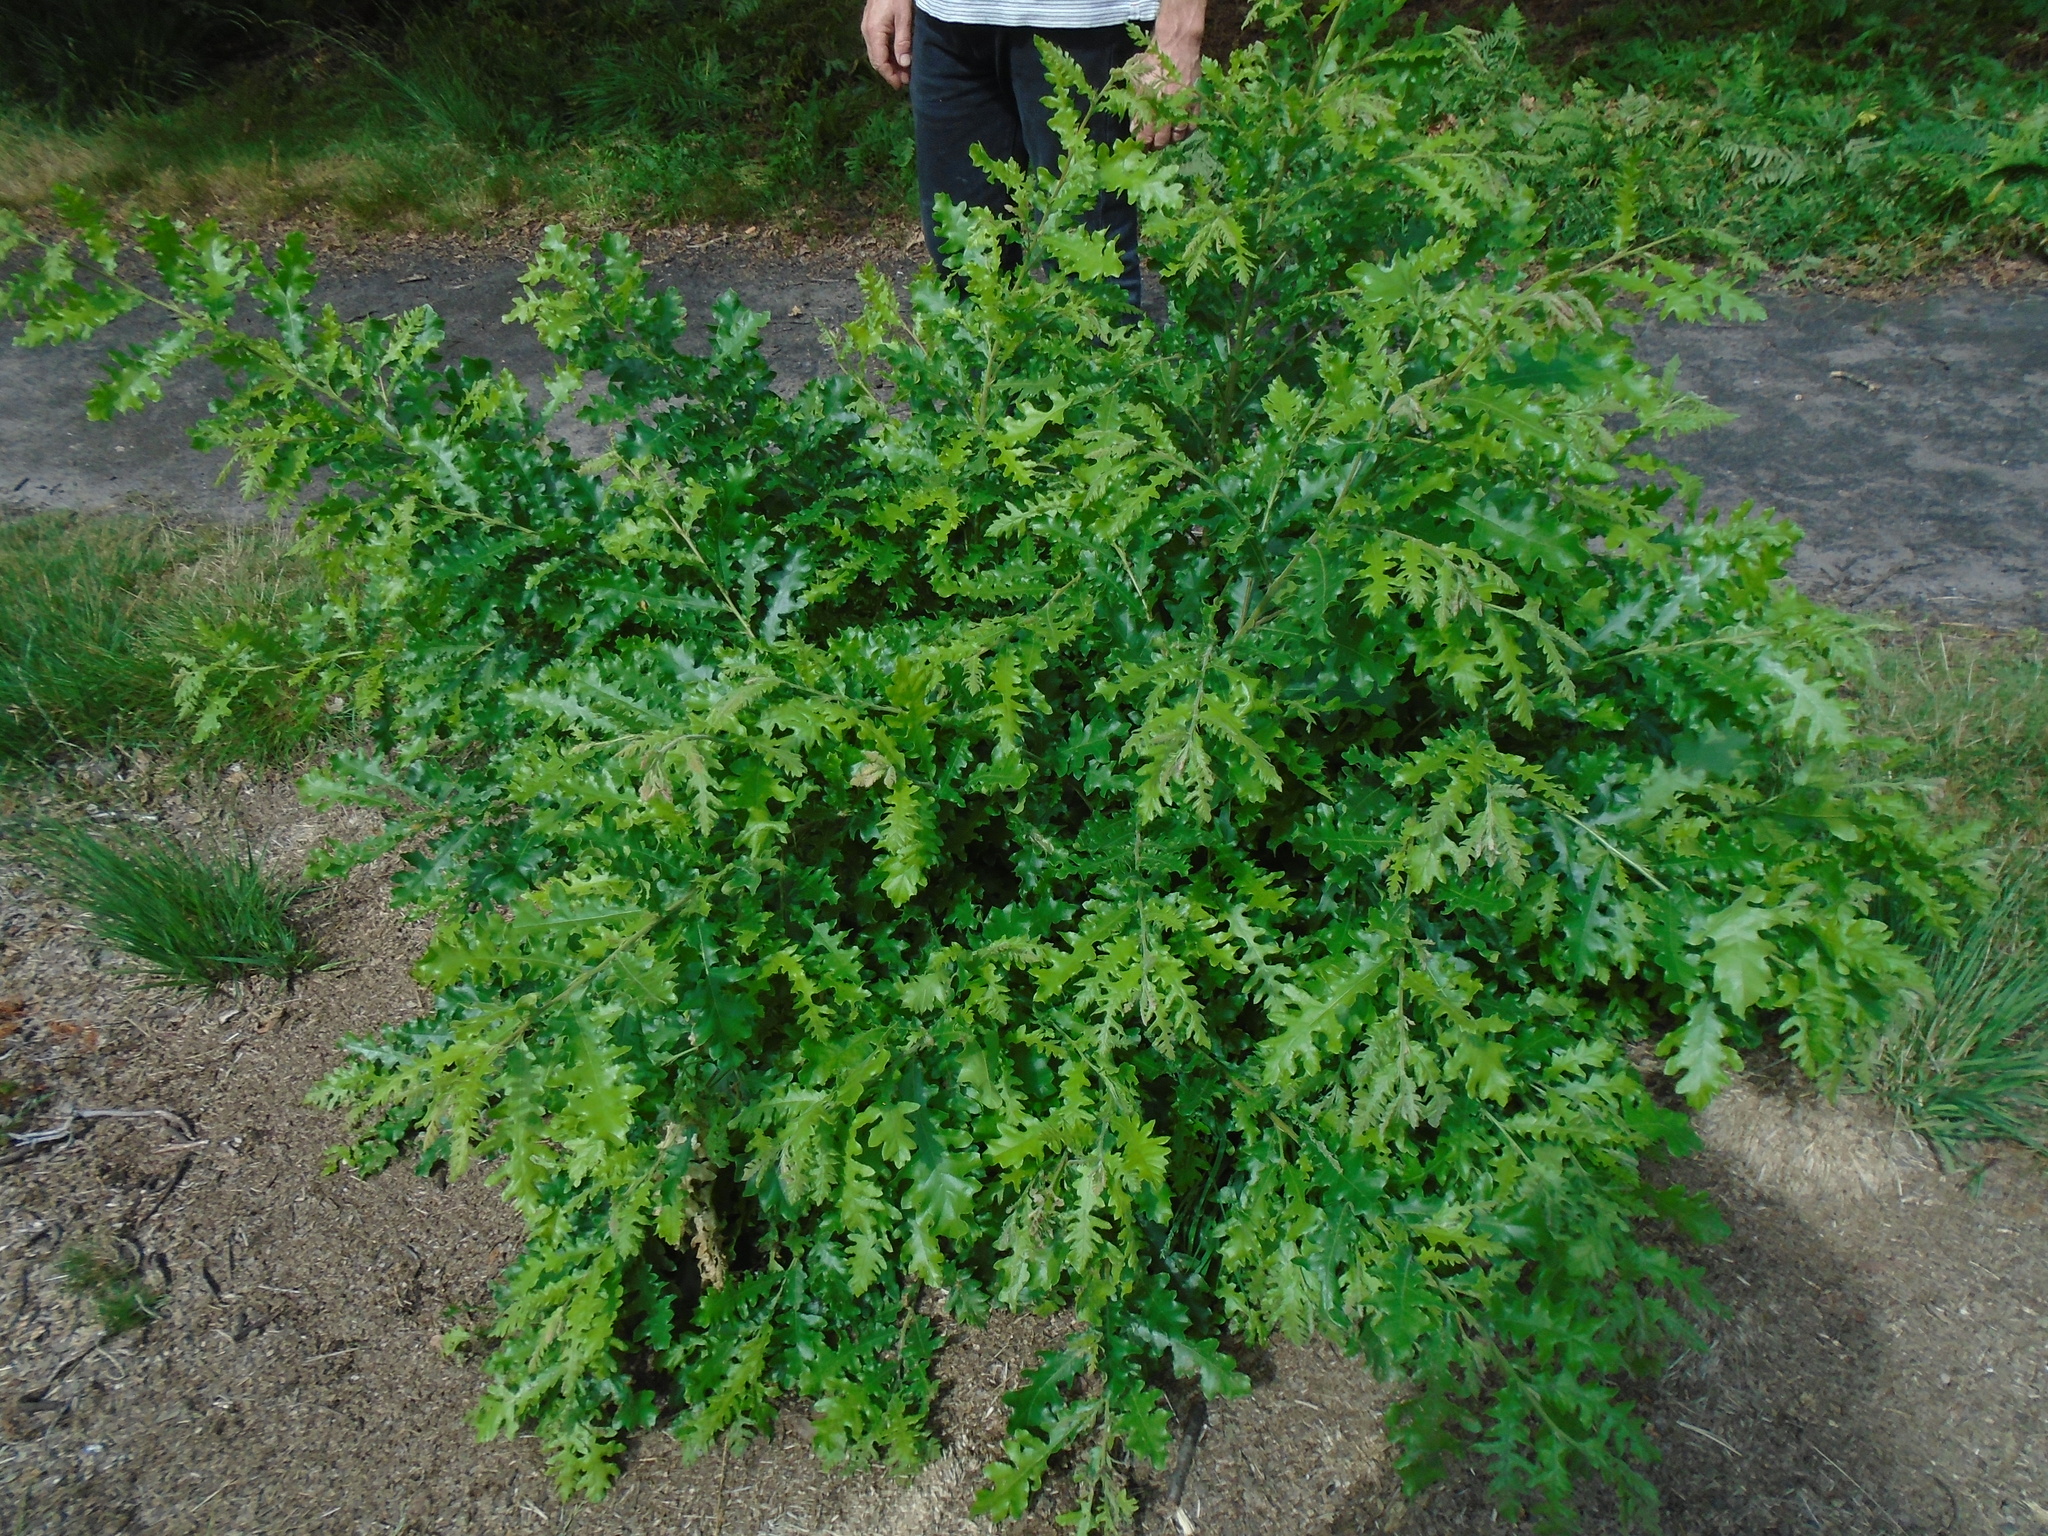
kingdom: Plantae
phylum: Tracheophyta
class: Magnoliopsida
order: Fagales
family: Fagaceae
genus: Quercus
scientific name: Quercus cerris
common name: Turkey oak
